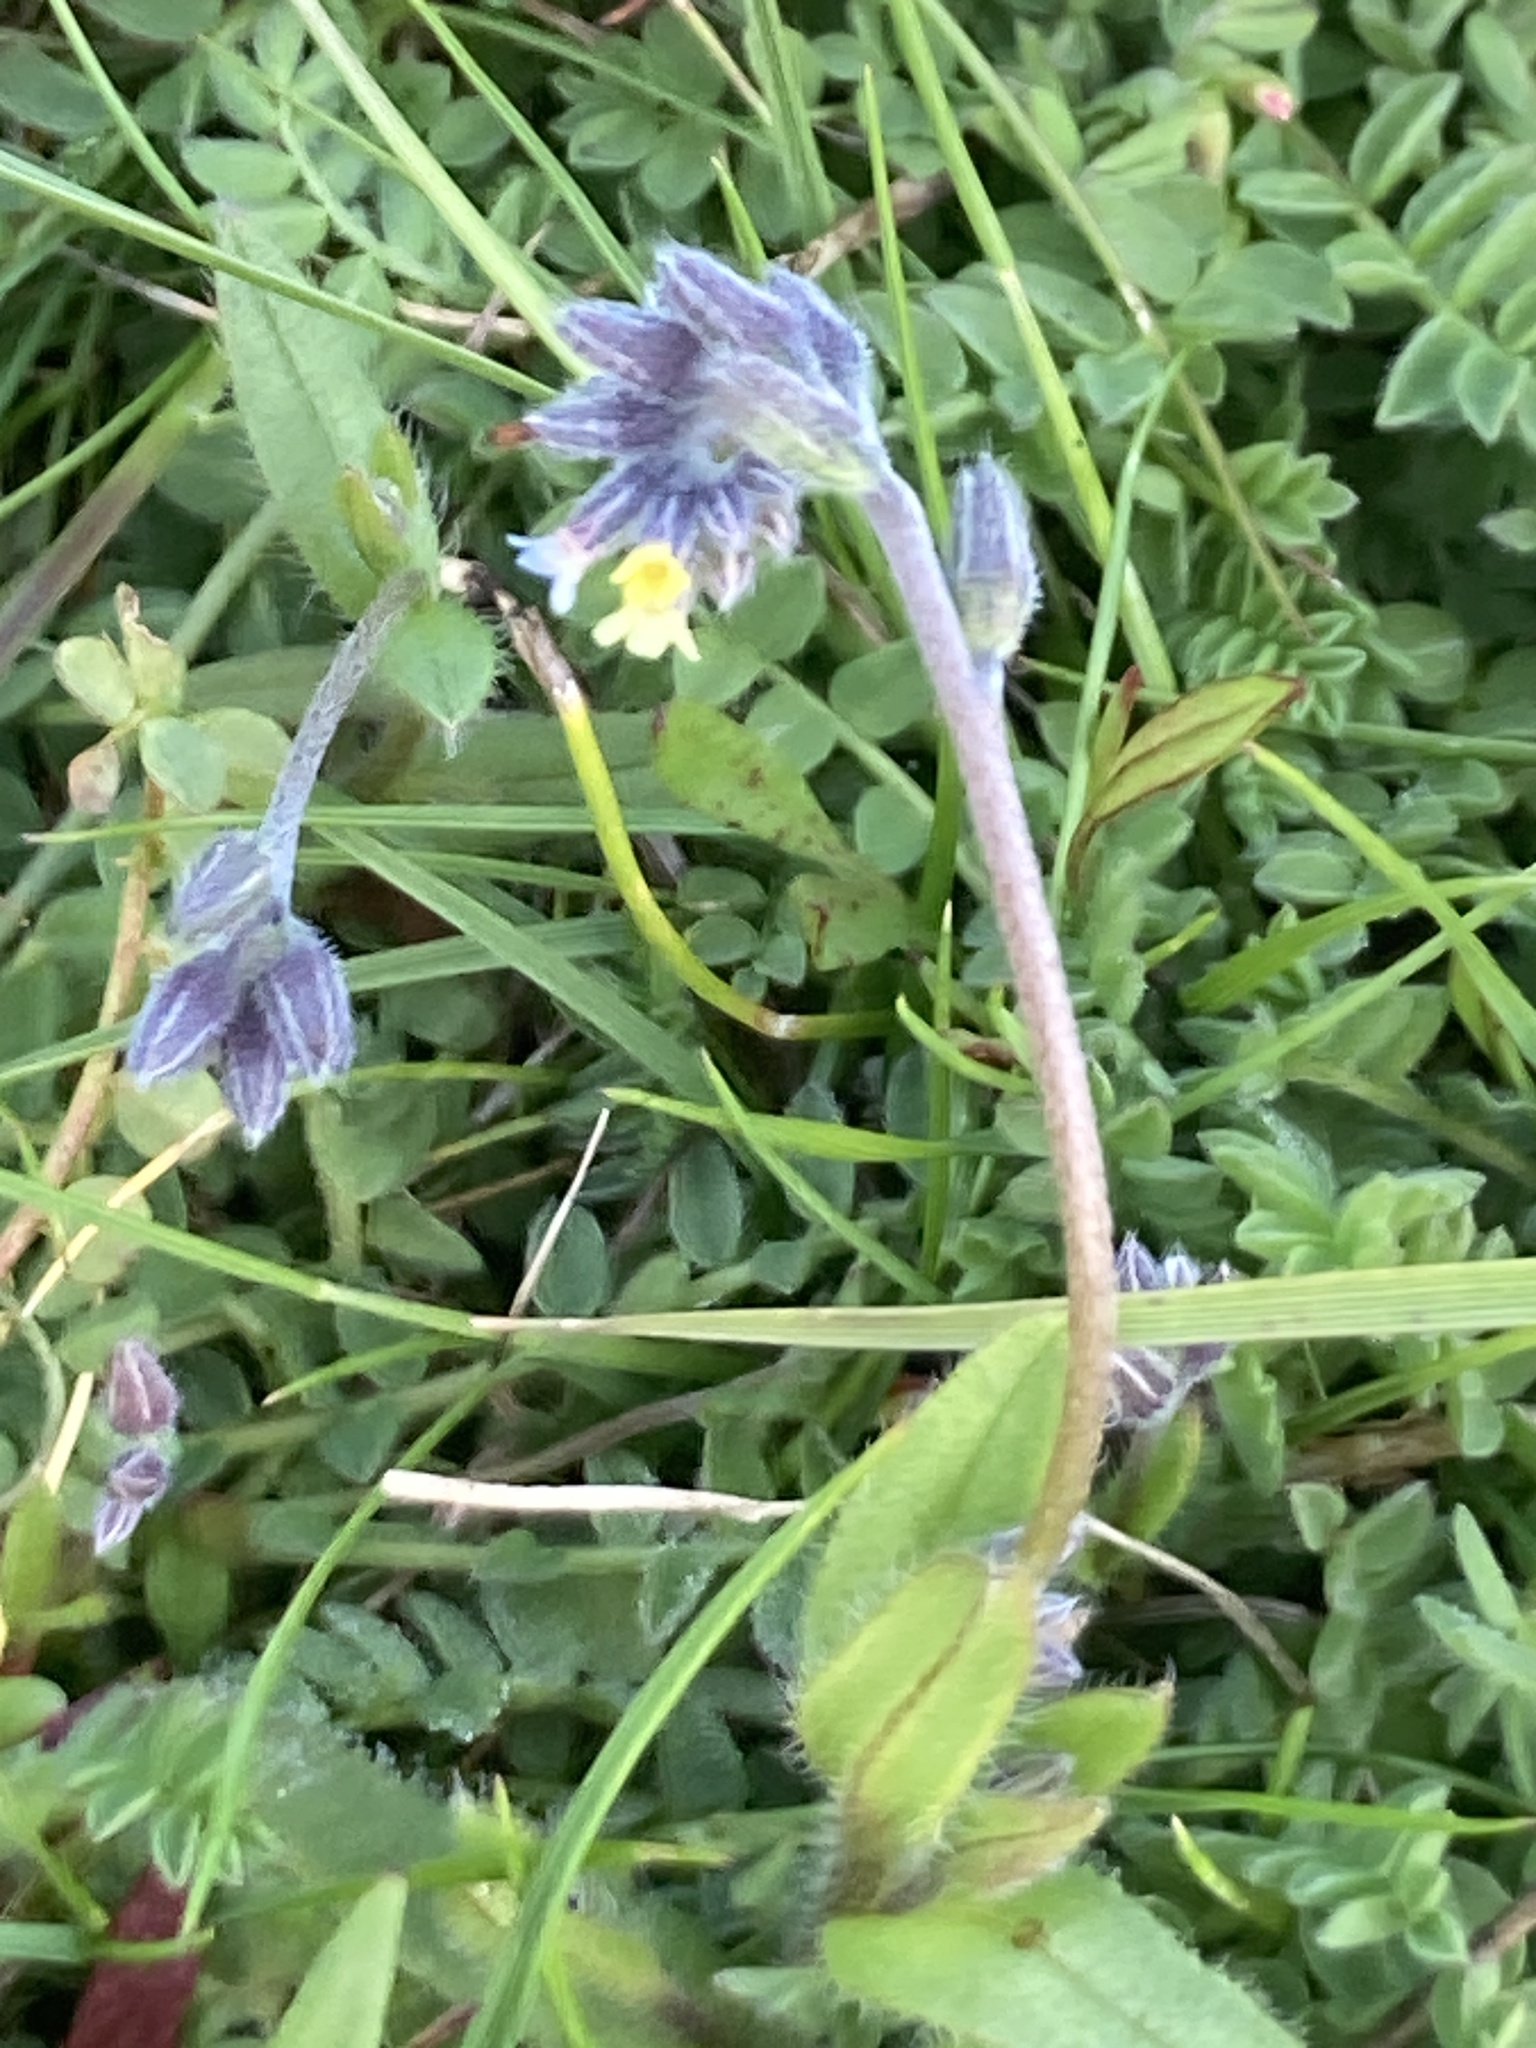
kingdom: Plantae
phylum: Tracheophyta
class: Magnoliopsida
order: Boraginales
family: Boraginaceae
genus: Myosotis
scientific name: Myosotis discolor
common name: Changing forget-me-not
